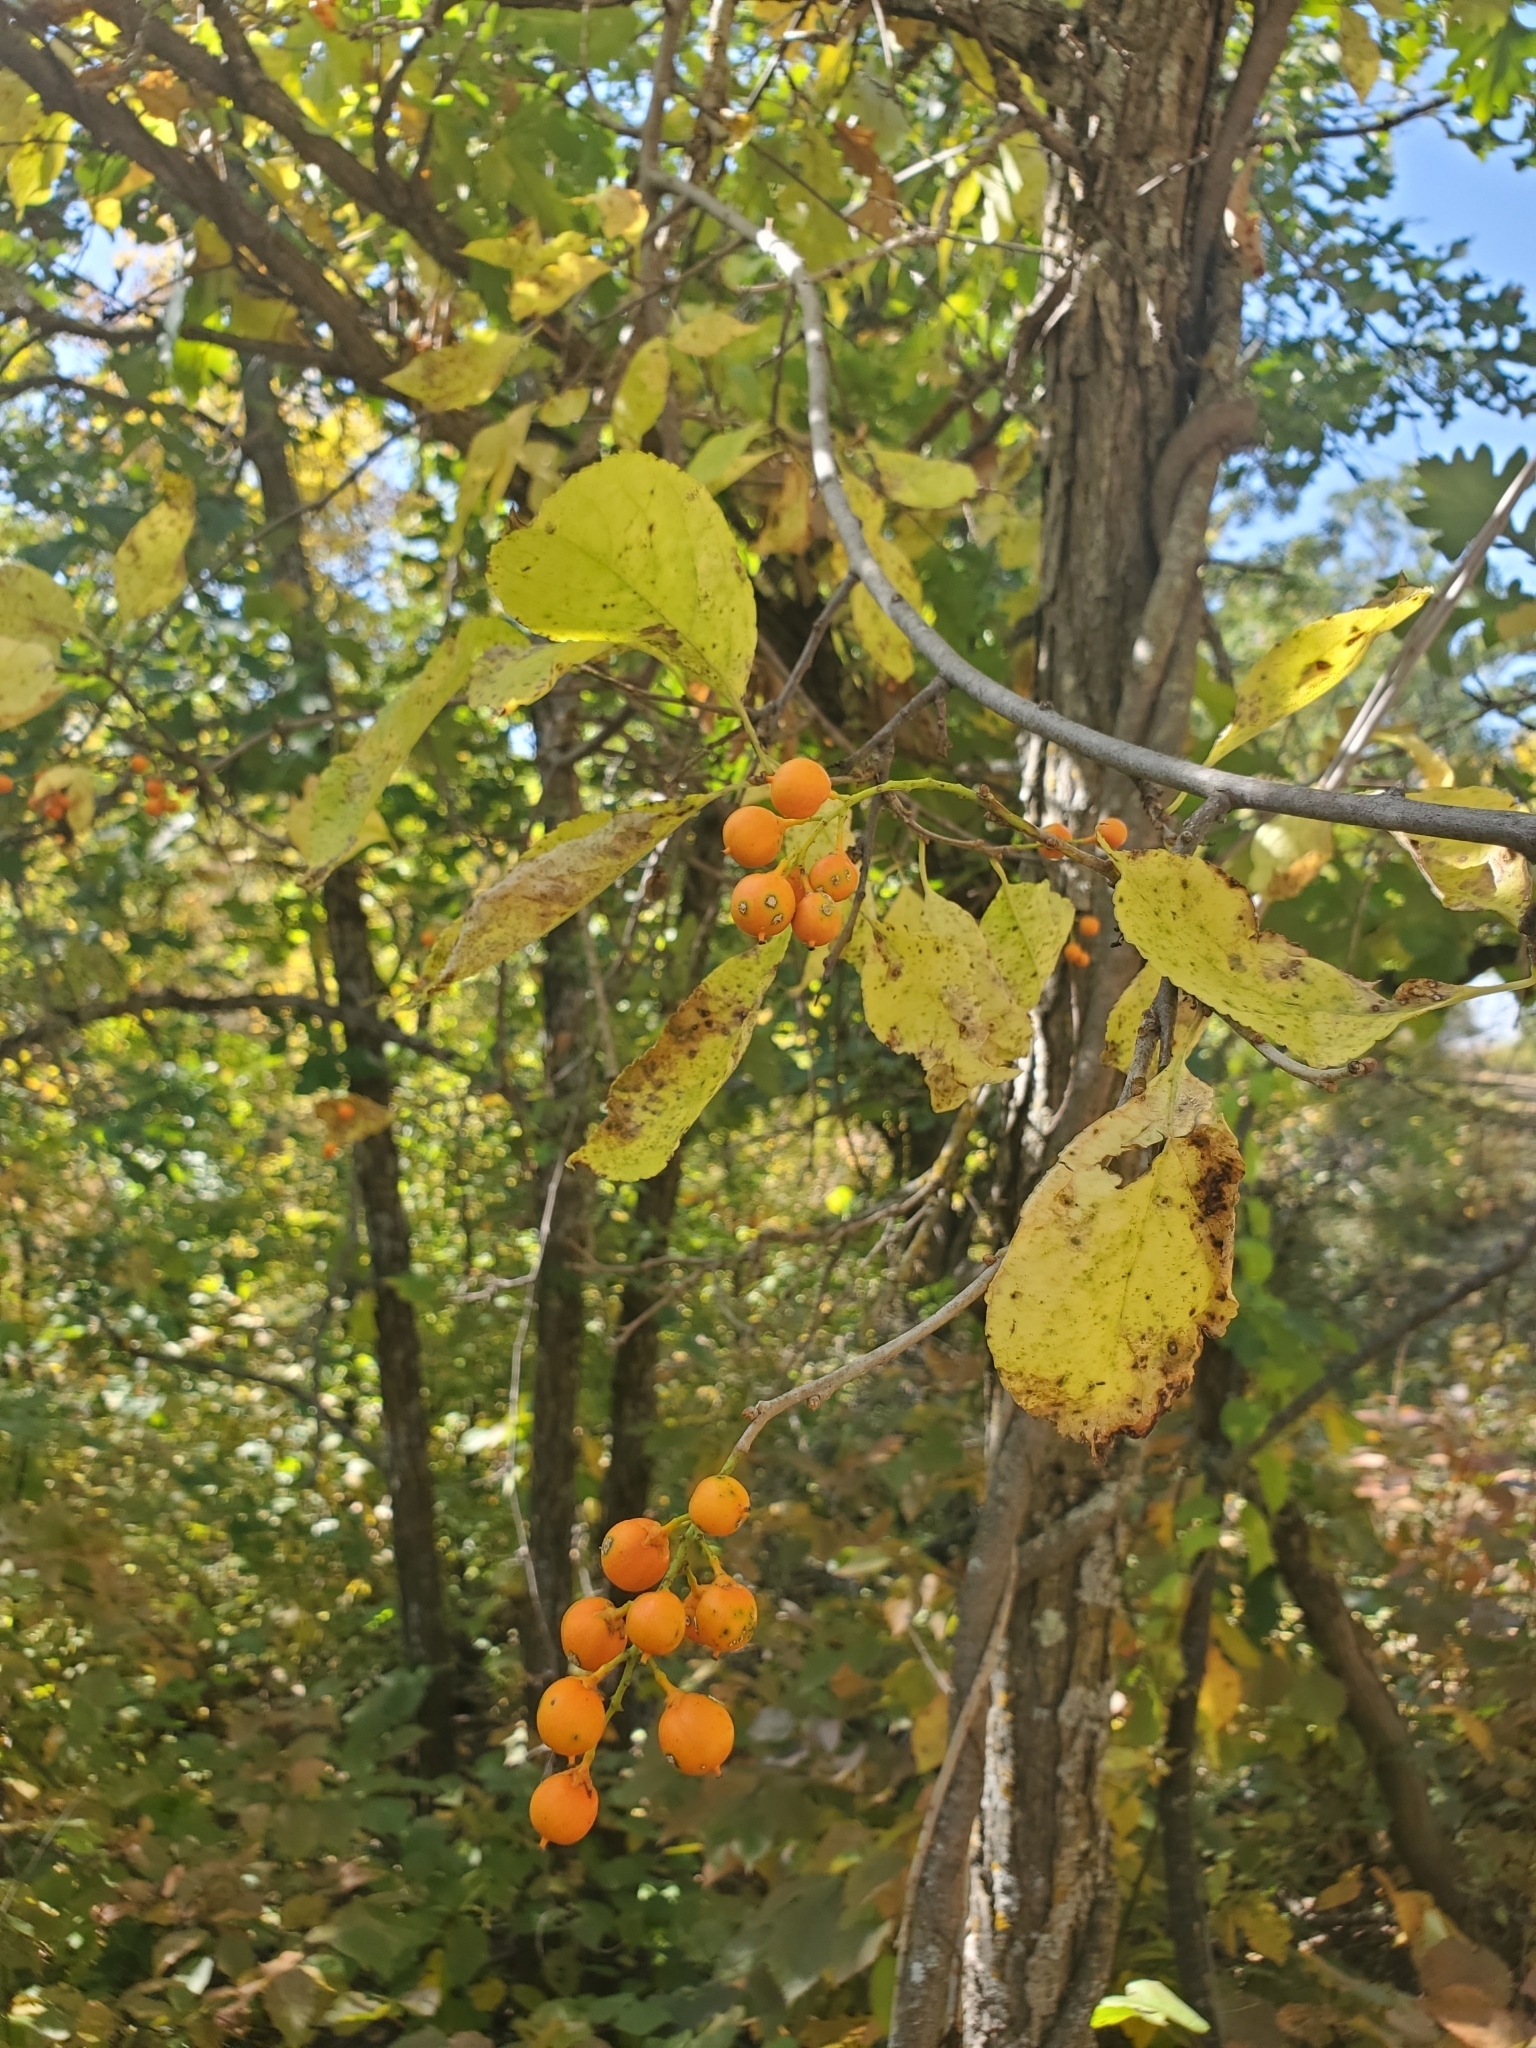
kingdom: Plantae
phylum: Tracheophyta
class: Magnoliopsida
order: Celastrales
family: Celastraceae
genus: Celastrus
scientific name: Celastrus scandens
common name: American bittersweet
